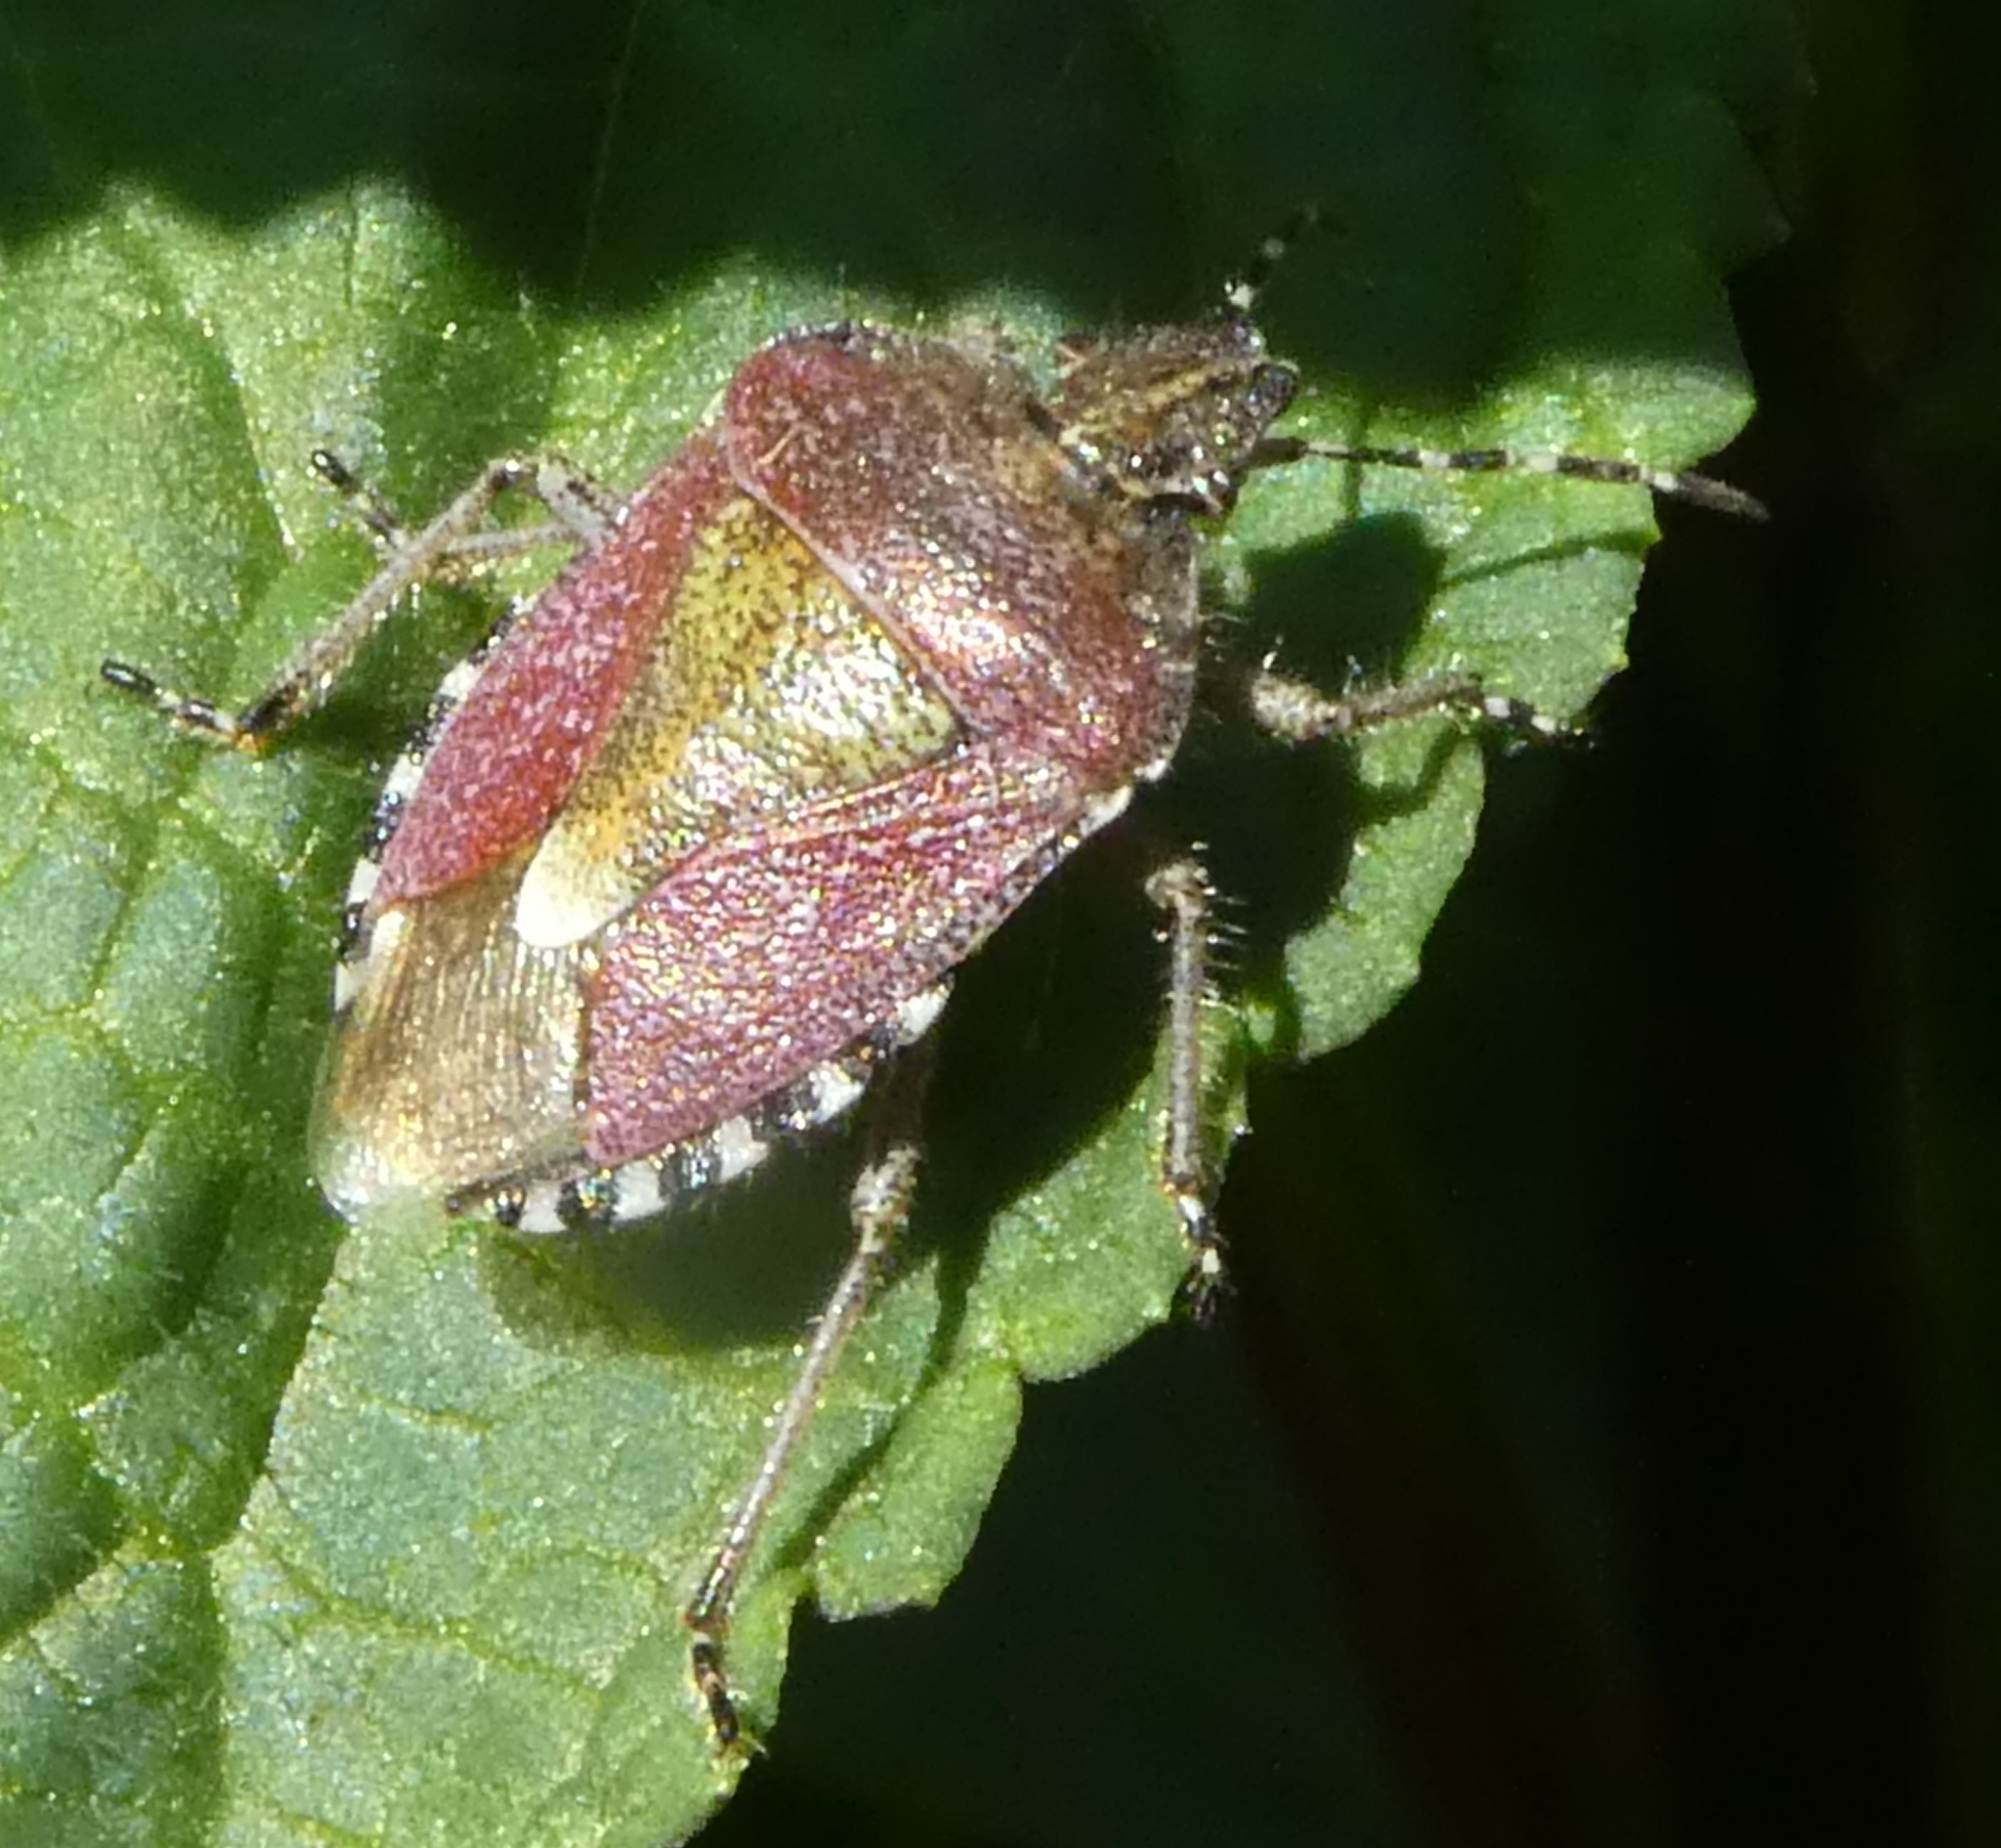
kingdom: Animalia
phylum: Arthropoda
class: Insecta
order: Hemiptera
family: Pentatomidae
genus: Dolycoris
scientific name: Dolycoris baccarum
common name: Sloe bug
